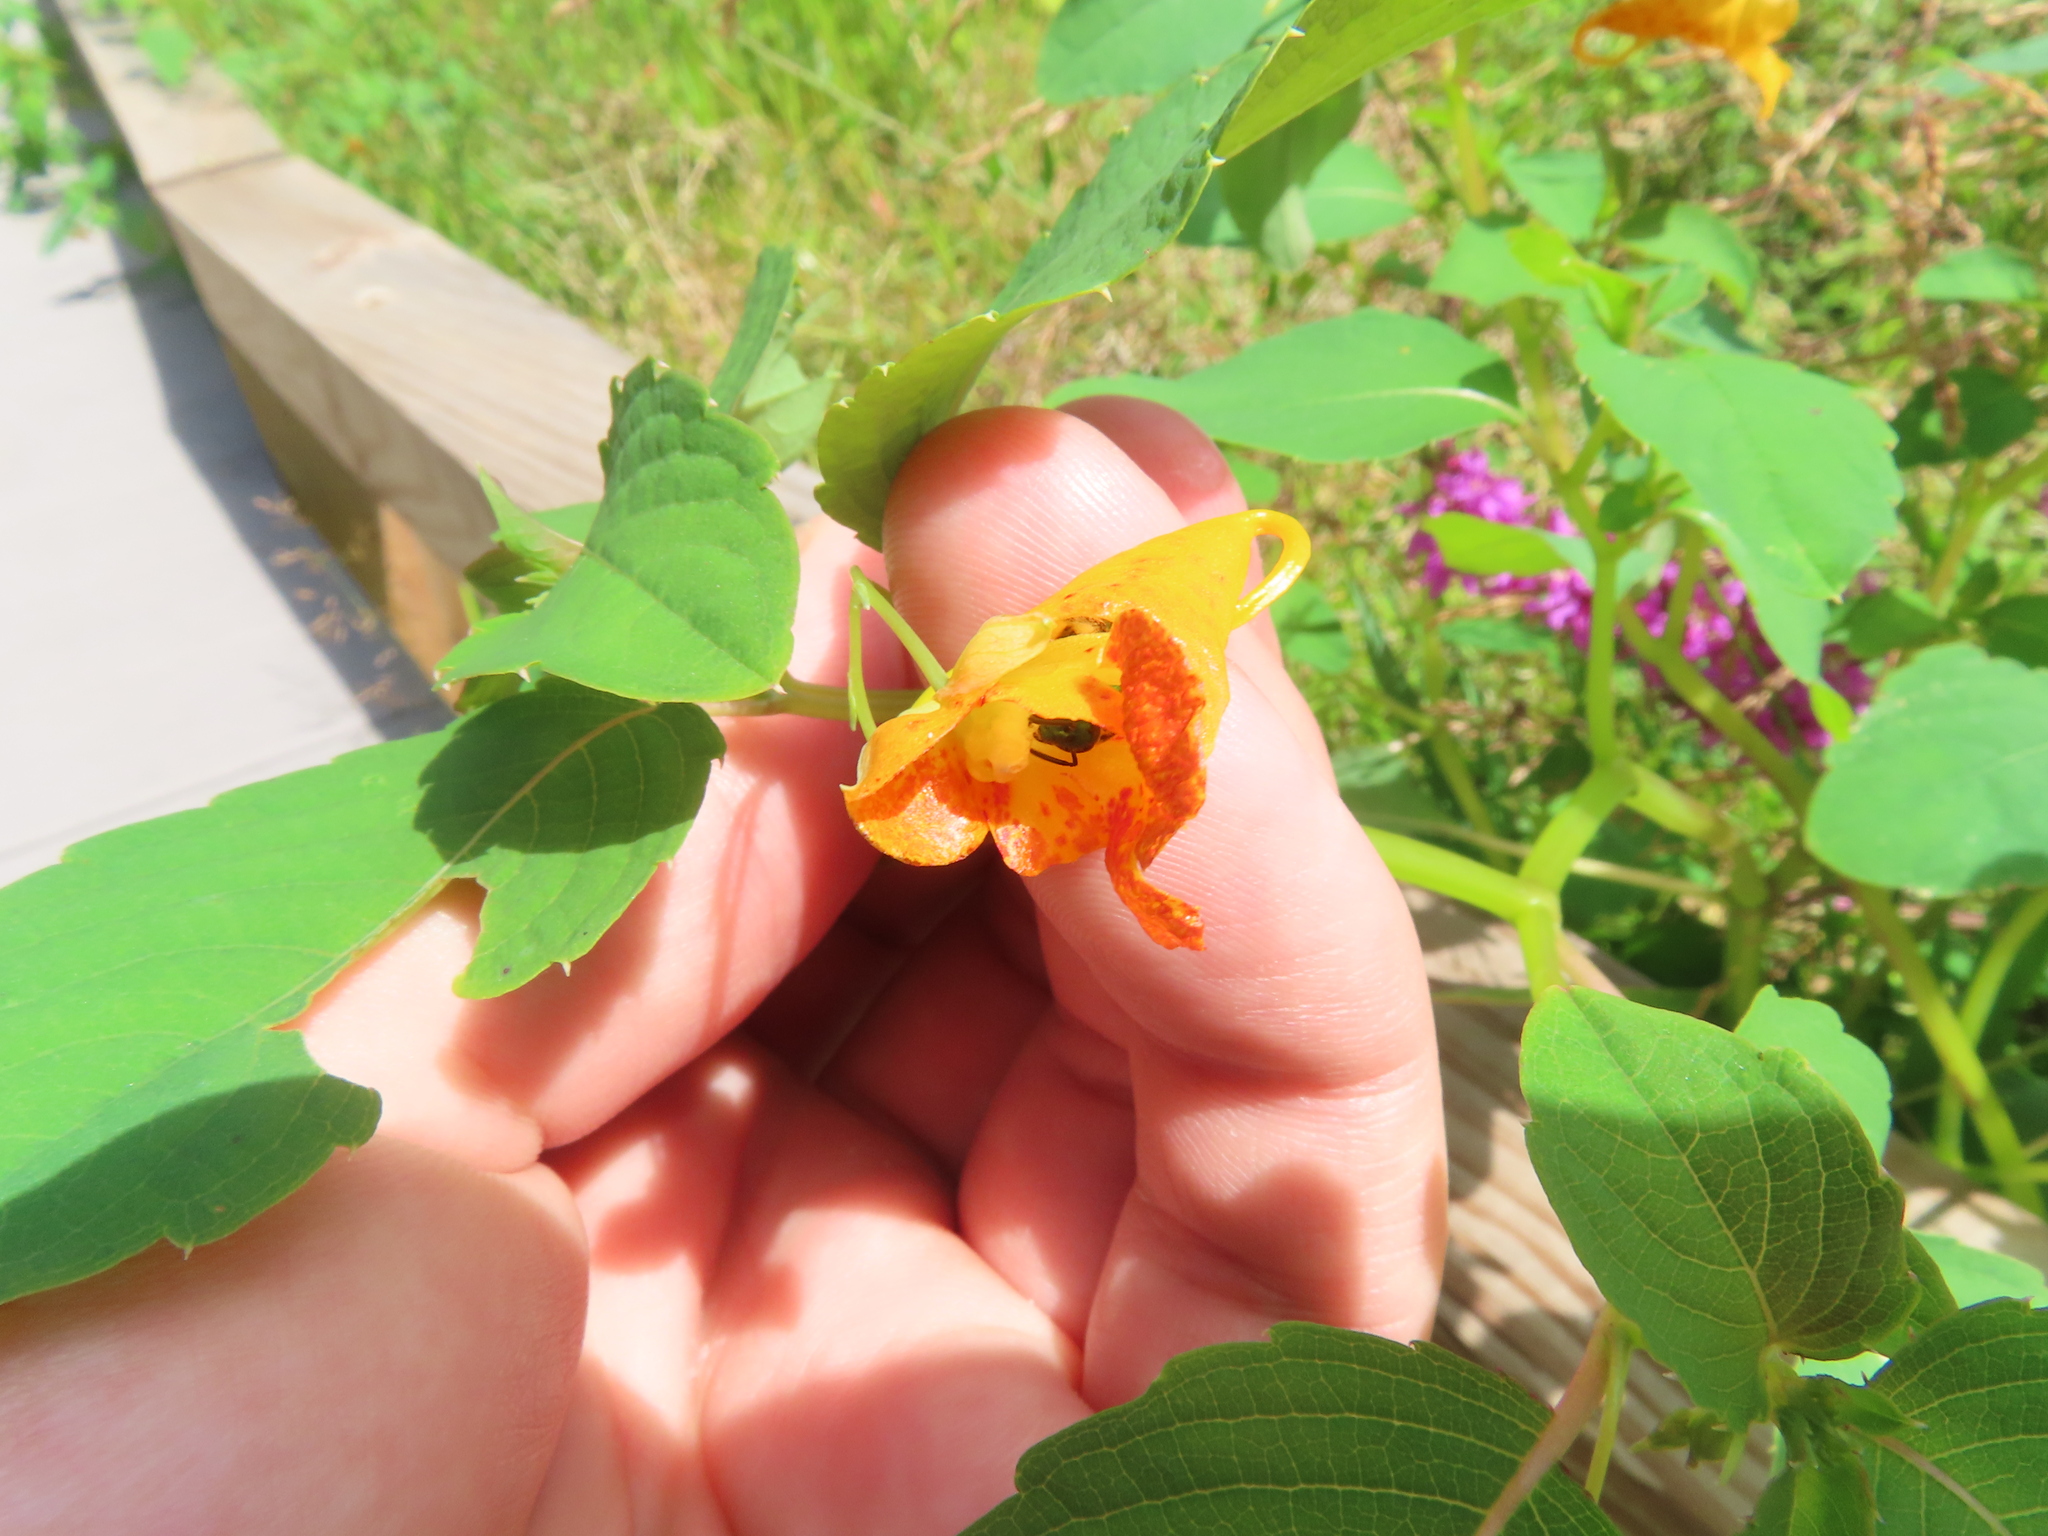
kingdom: Plantae
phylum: Tracheophyta
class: Magnoliopsida
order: Ericales
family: Balsaminaceae
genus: Impatiens
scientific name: Impatiens capensis
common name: Orange balsam
